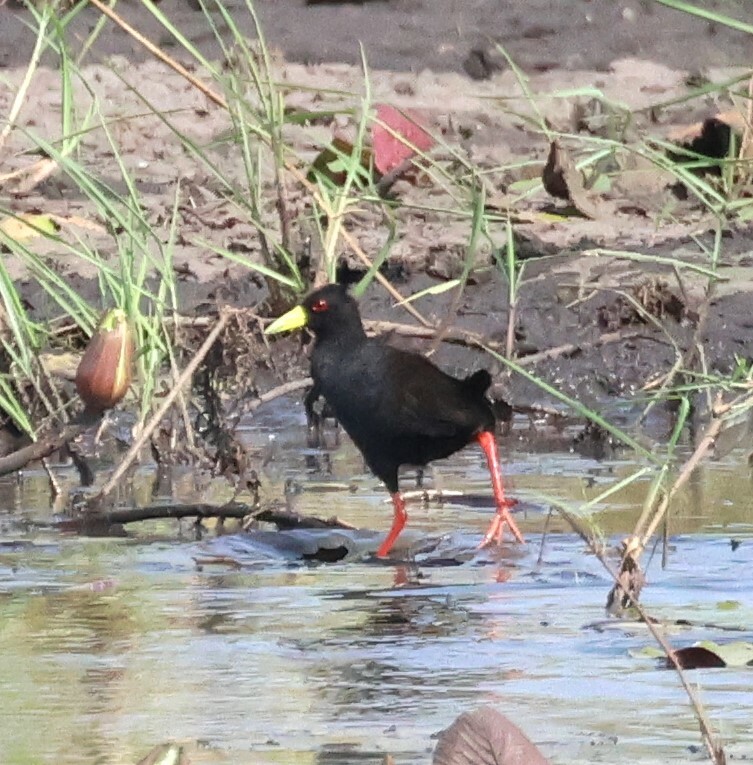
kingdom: Animalia
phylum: Chordata
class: Aves
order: Gruiformes
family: Rallidae
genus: Amaurornis
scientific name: Amaurornis flavirostra
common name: Black crake
